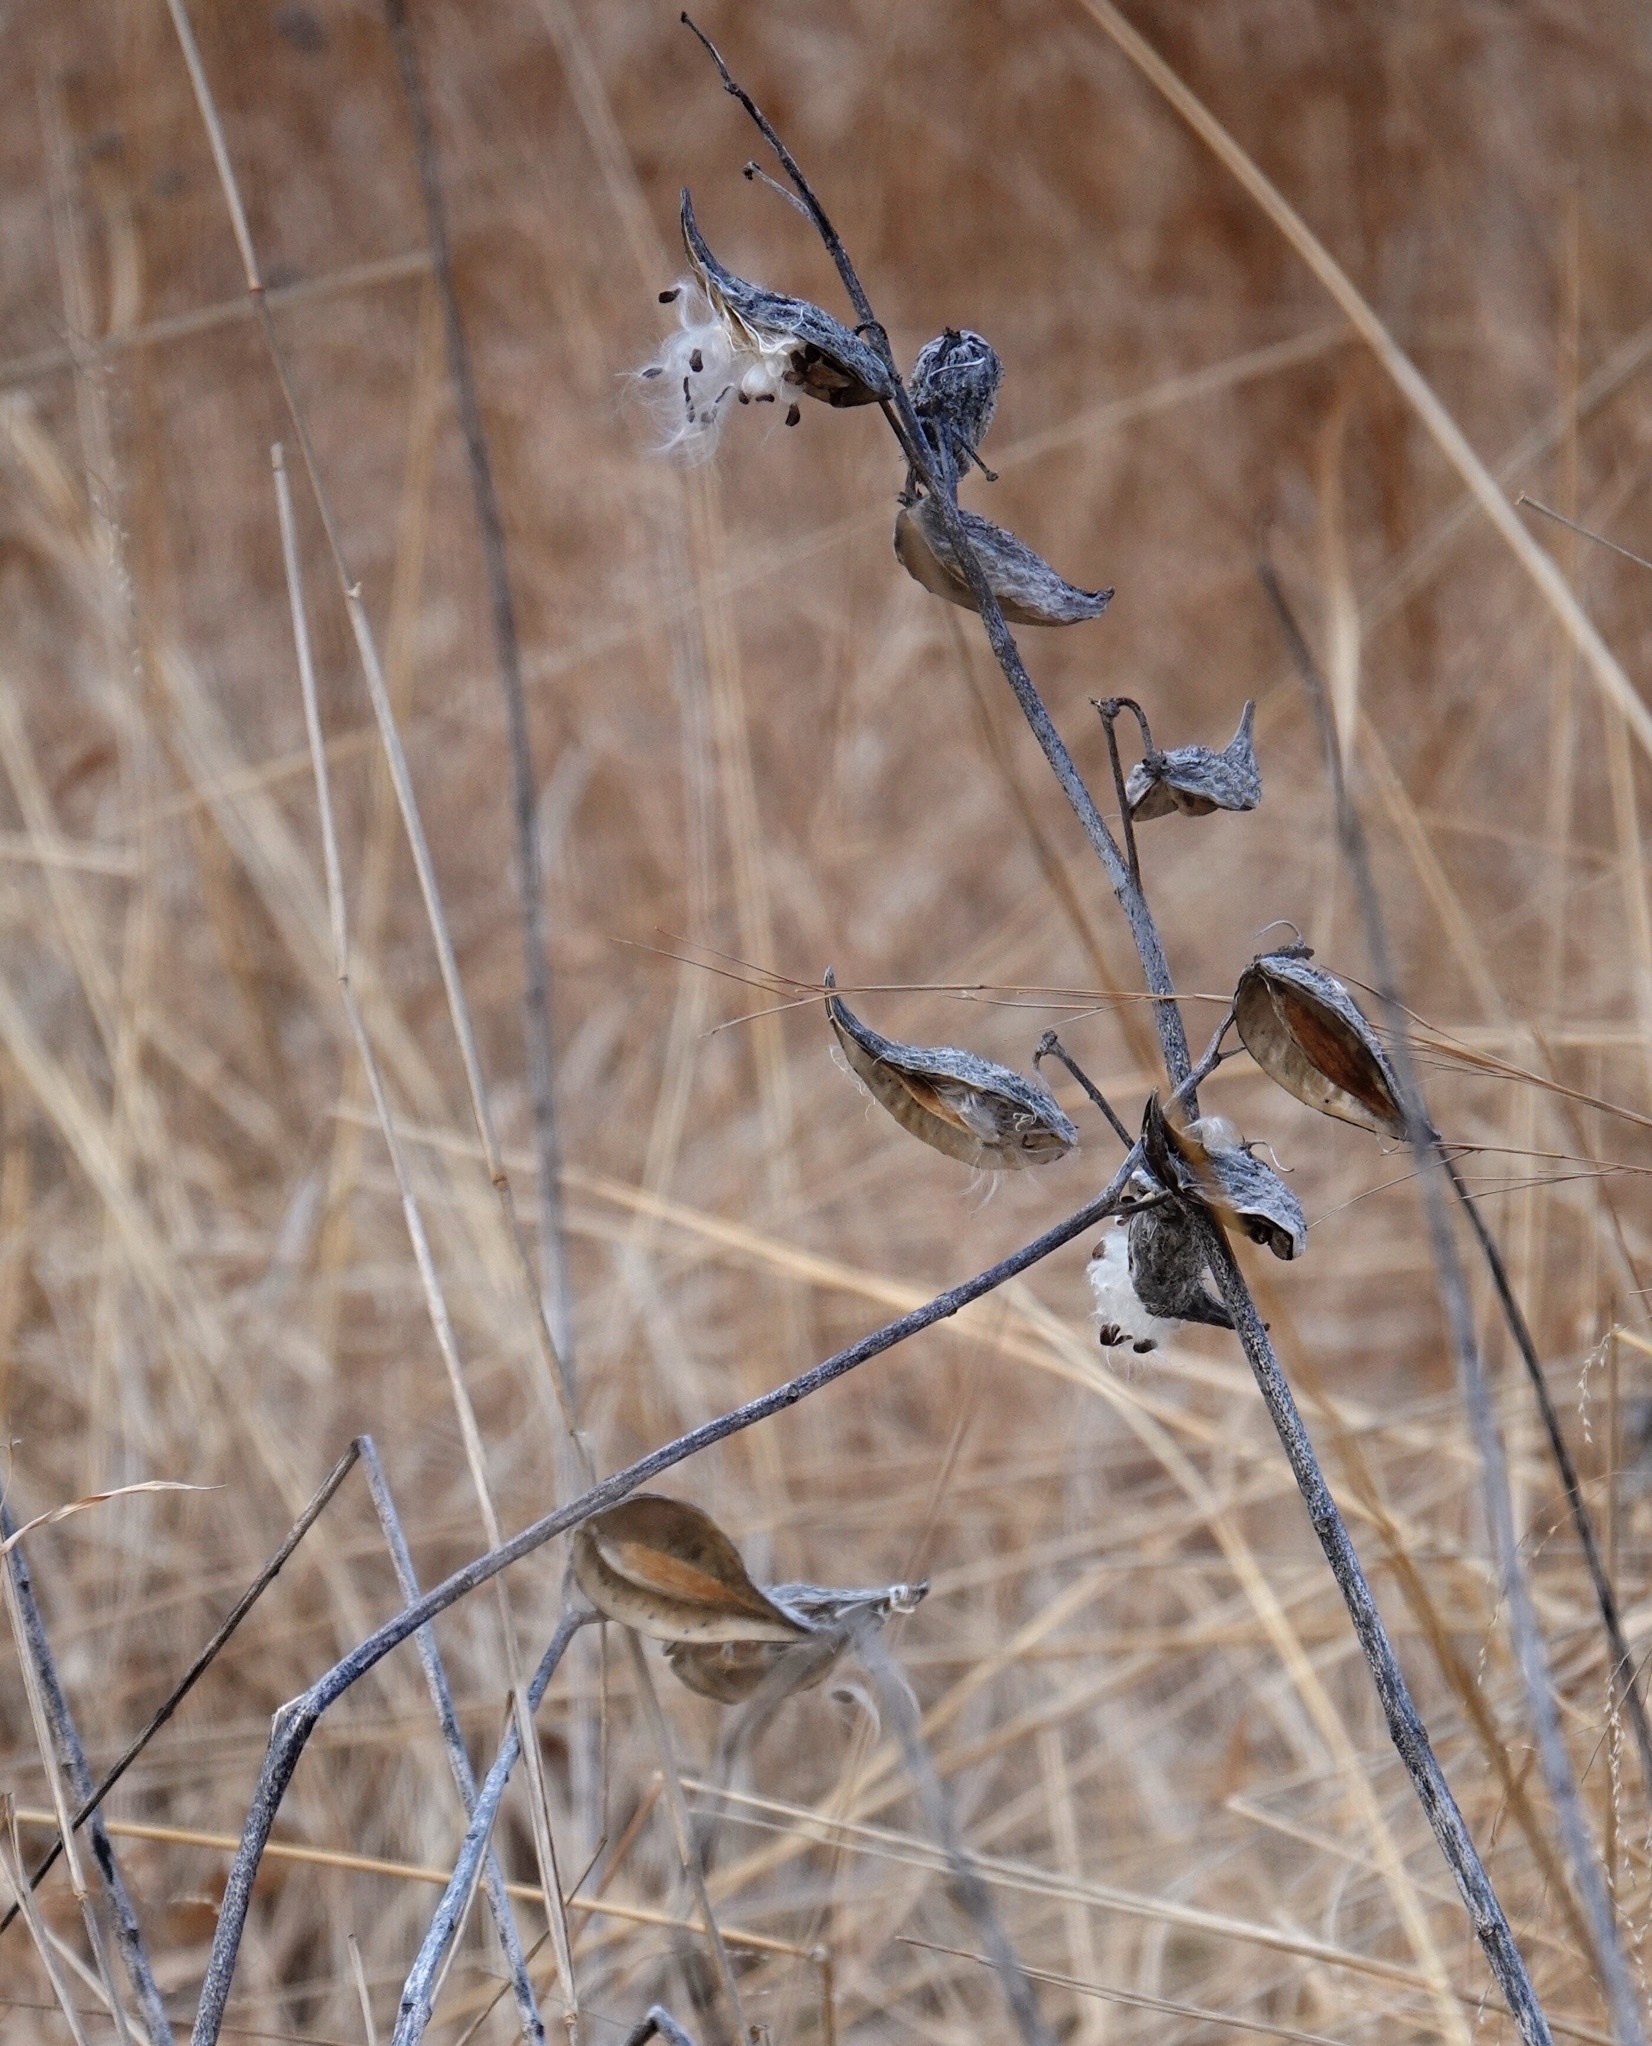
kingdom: Plantae
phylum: Tracheophyta
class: Magnoliopsida
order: Gentianales
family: Apocynaceae
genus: Asclepias
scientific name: Asclepias syriaca
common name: Common milkweed
